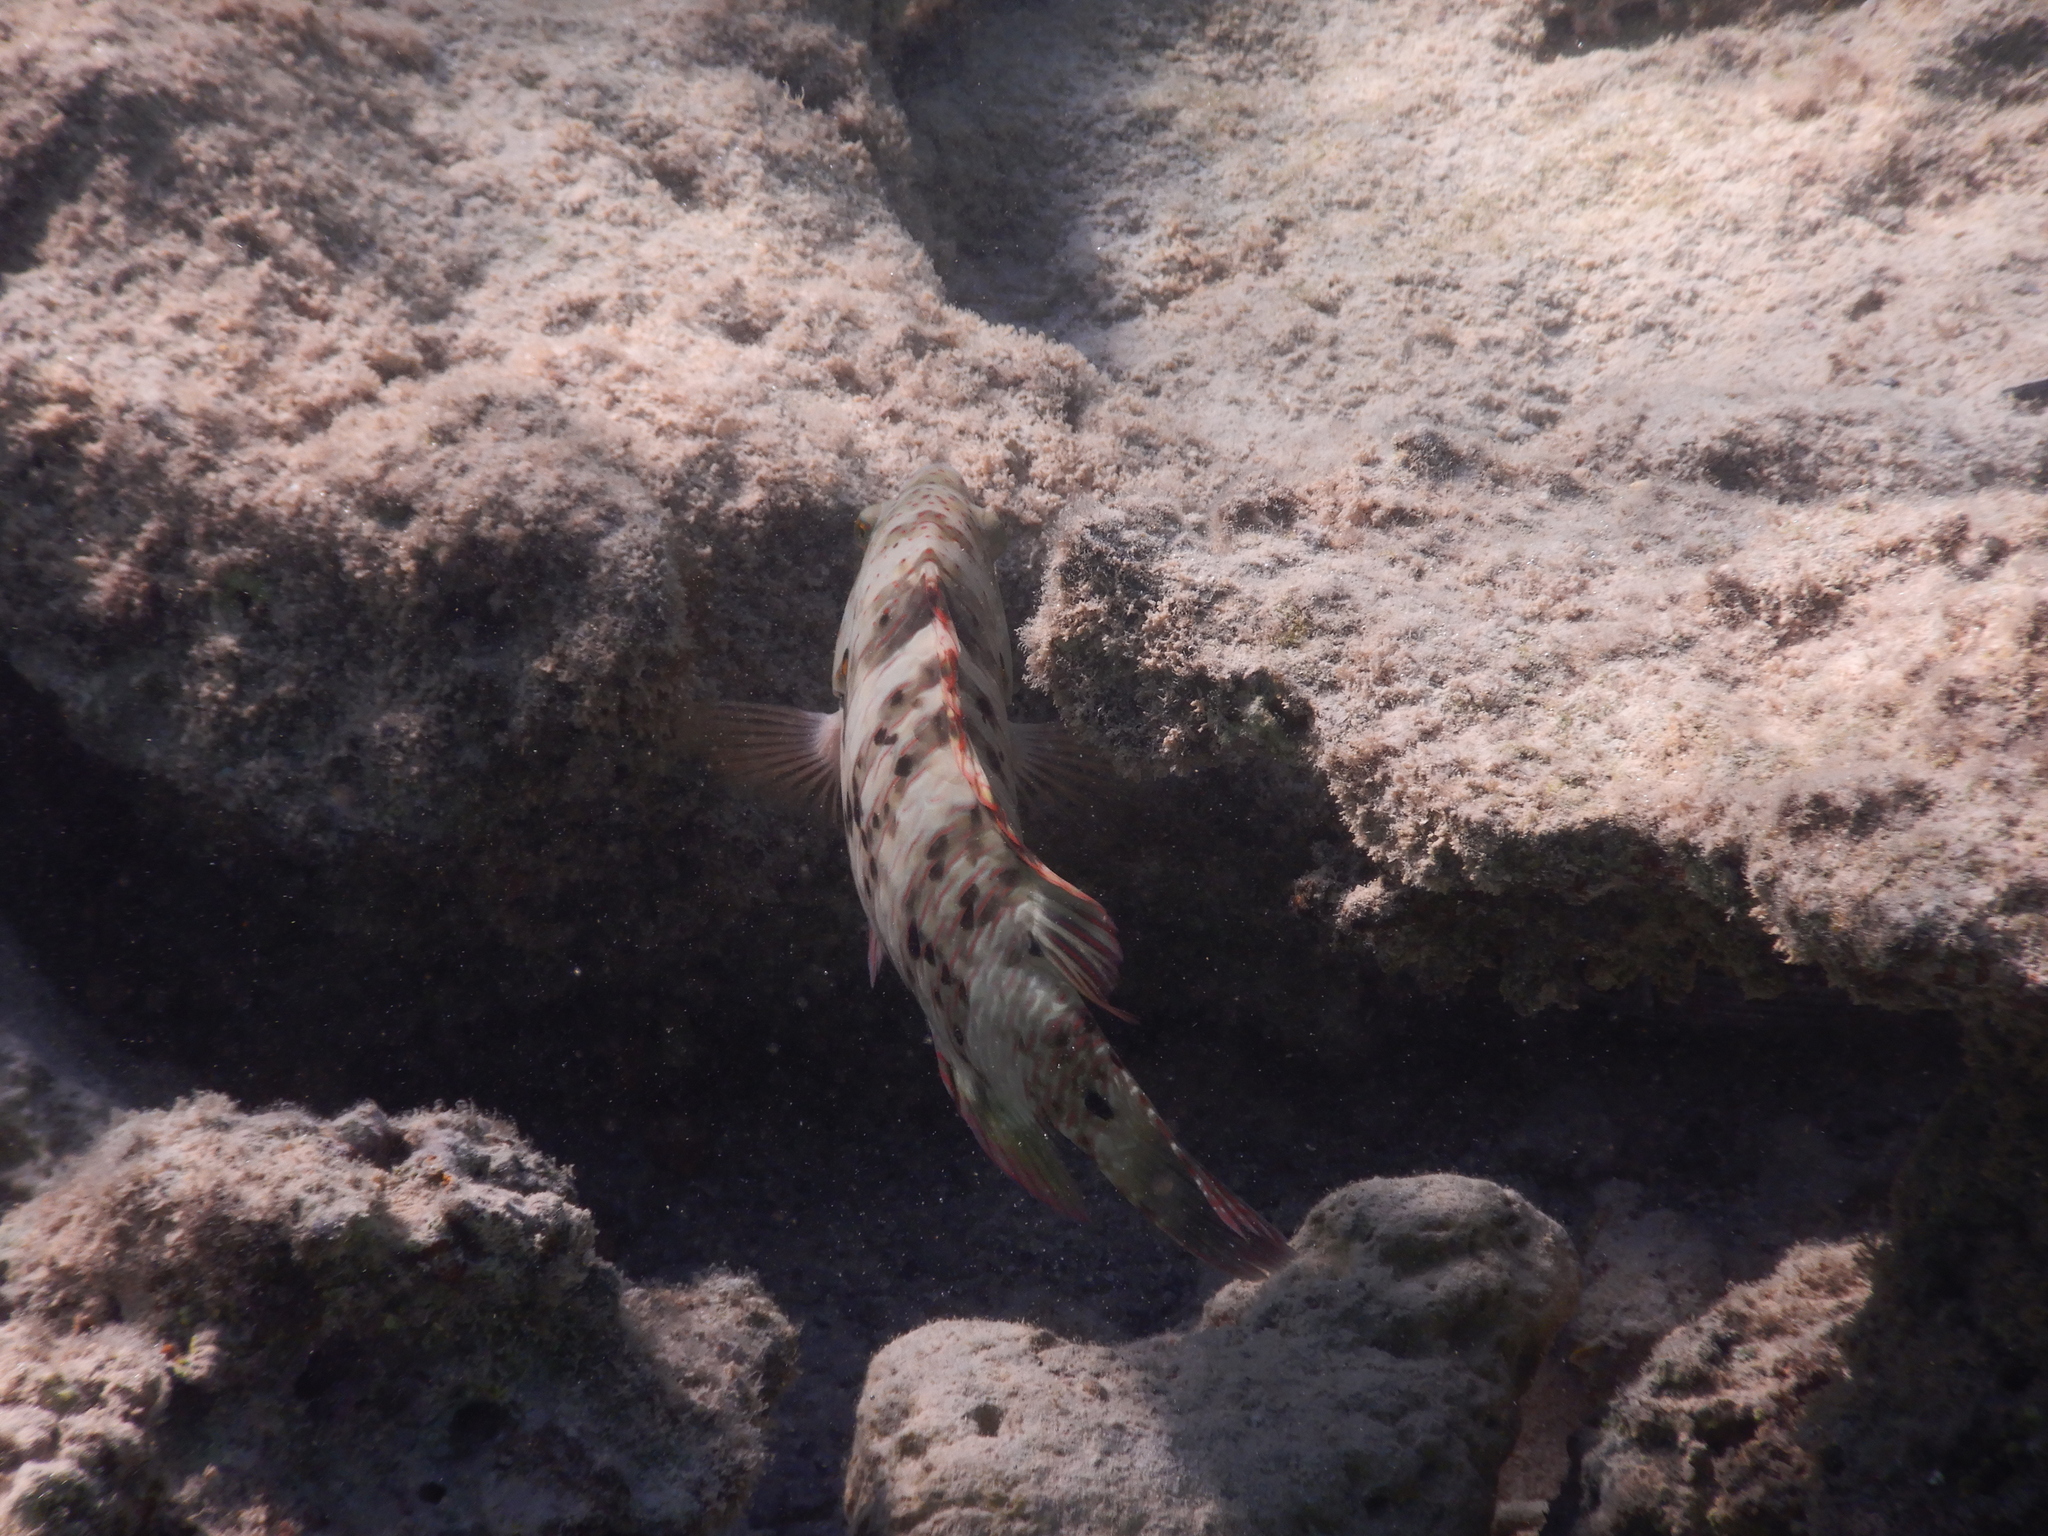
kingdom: Animalia
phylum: Chordata
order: Perciformes
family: Labridae
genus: Cheilinus
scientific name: Cheilinus lunulatus
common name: Broomtail wrasse
